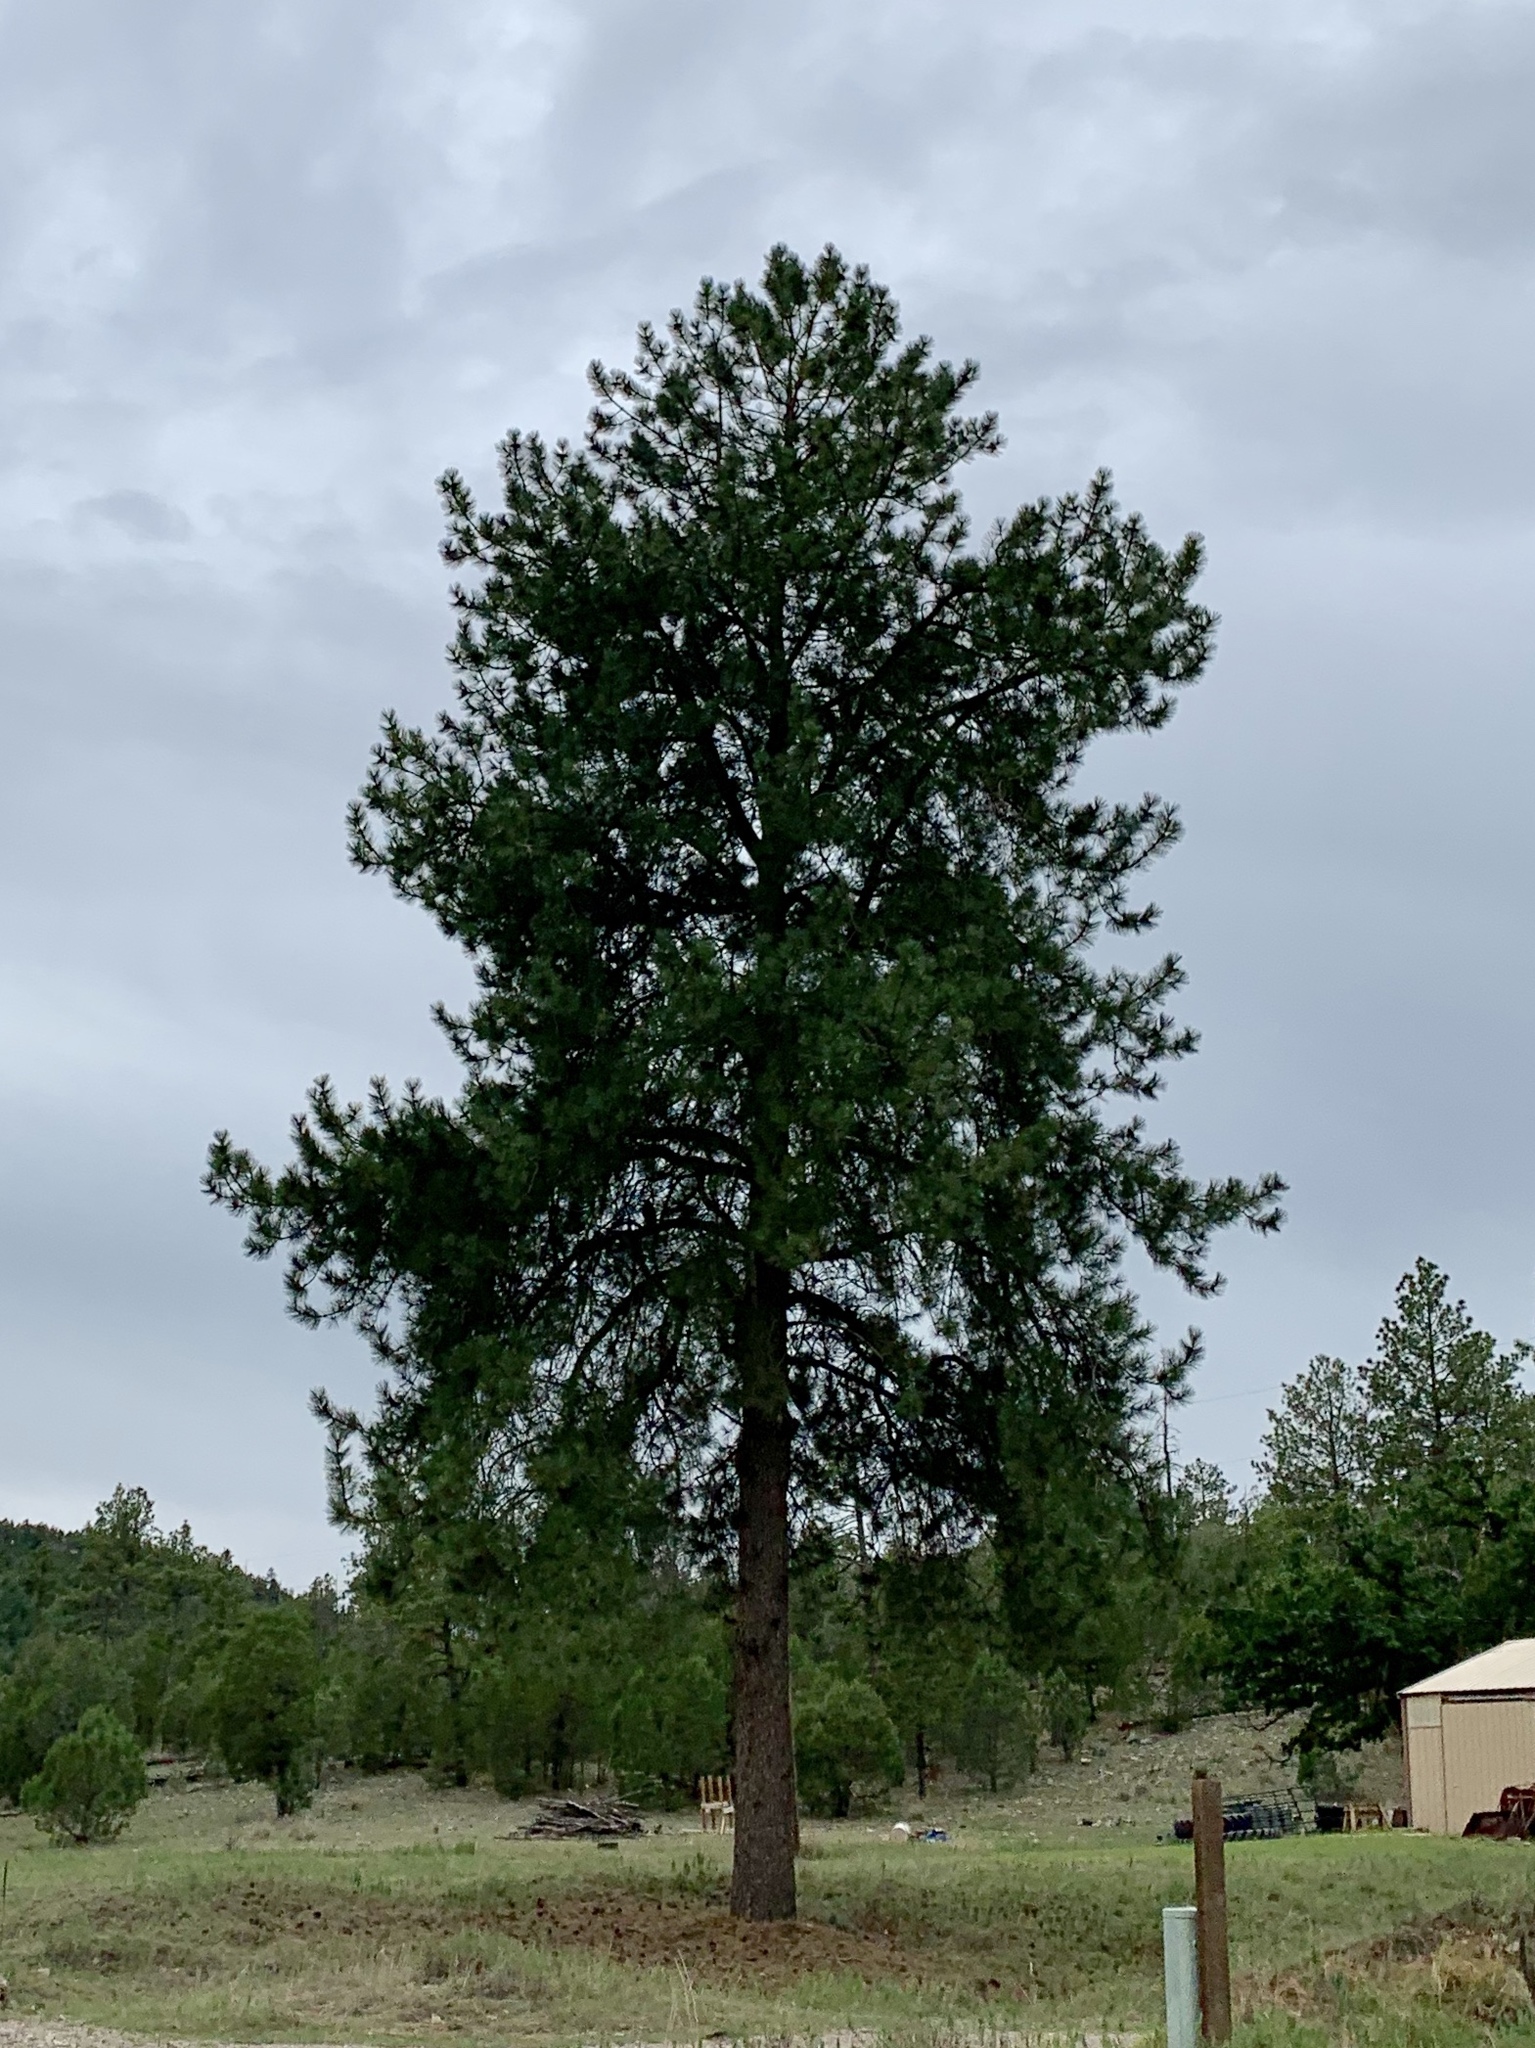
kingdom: Plantae
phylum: Tracheophyta
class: Pinopsida
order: Pinales
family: Pinaceae
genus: Pinus
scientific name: Pinus ponderosa
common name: Western yellow-pine
